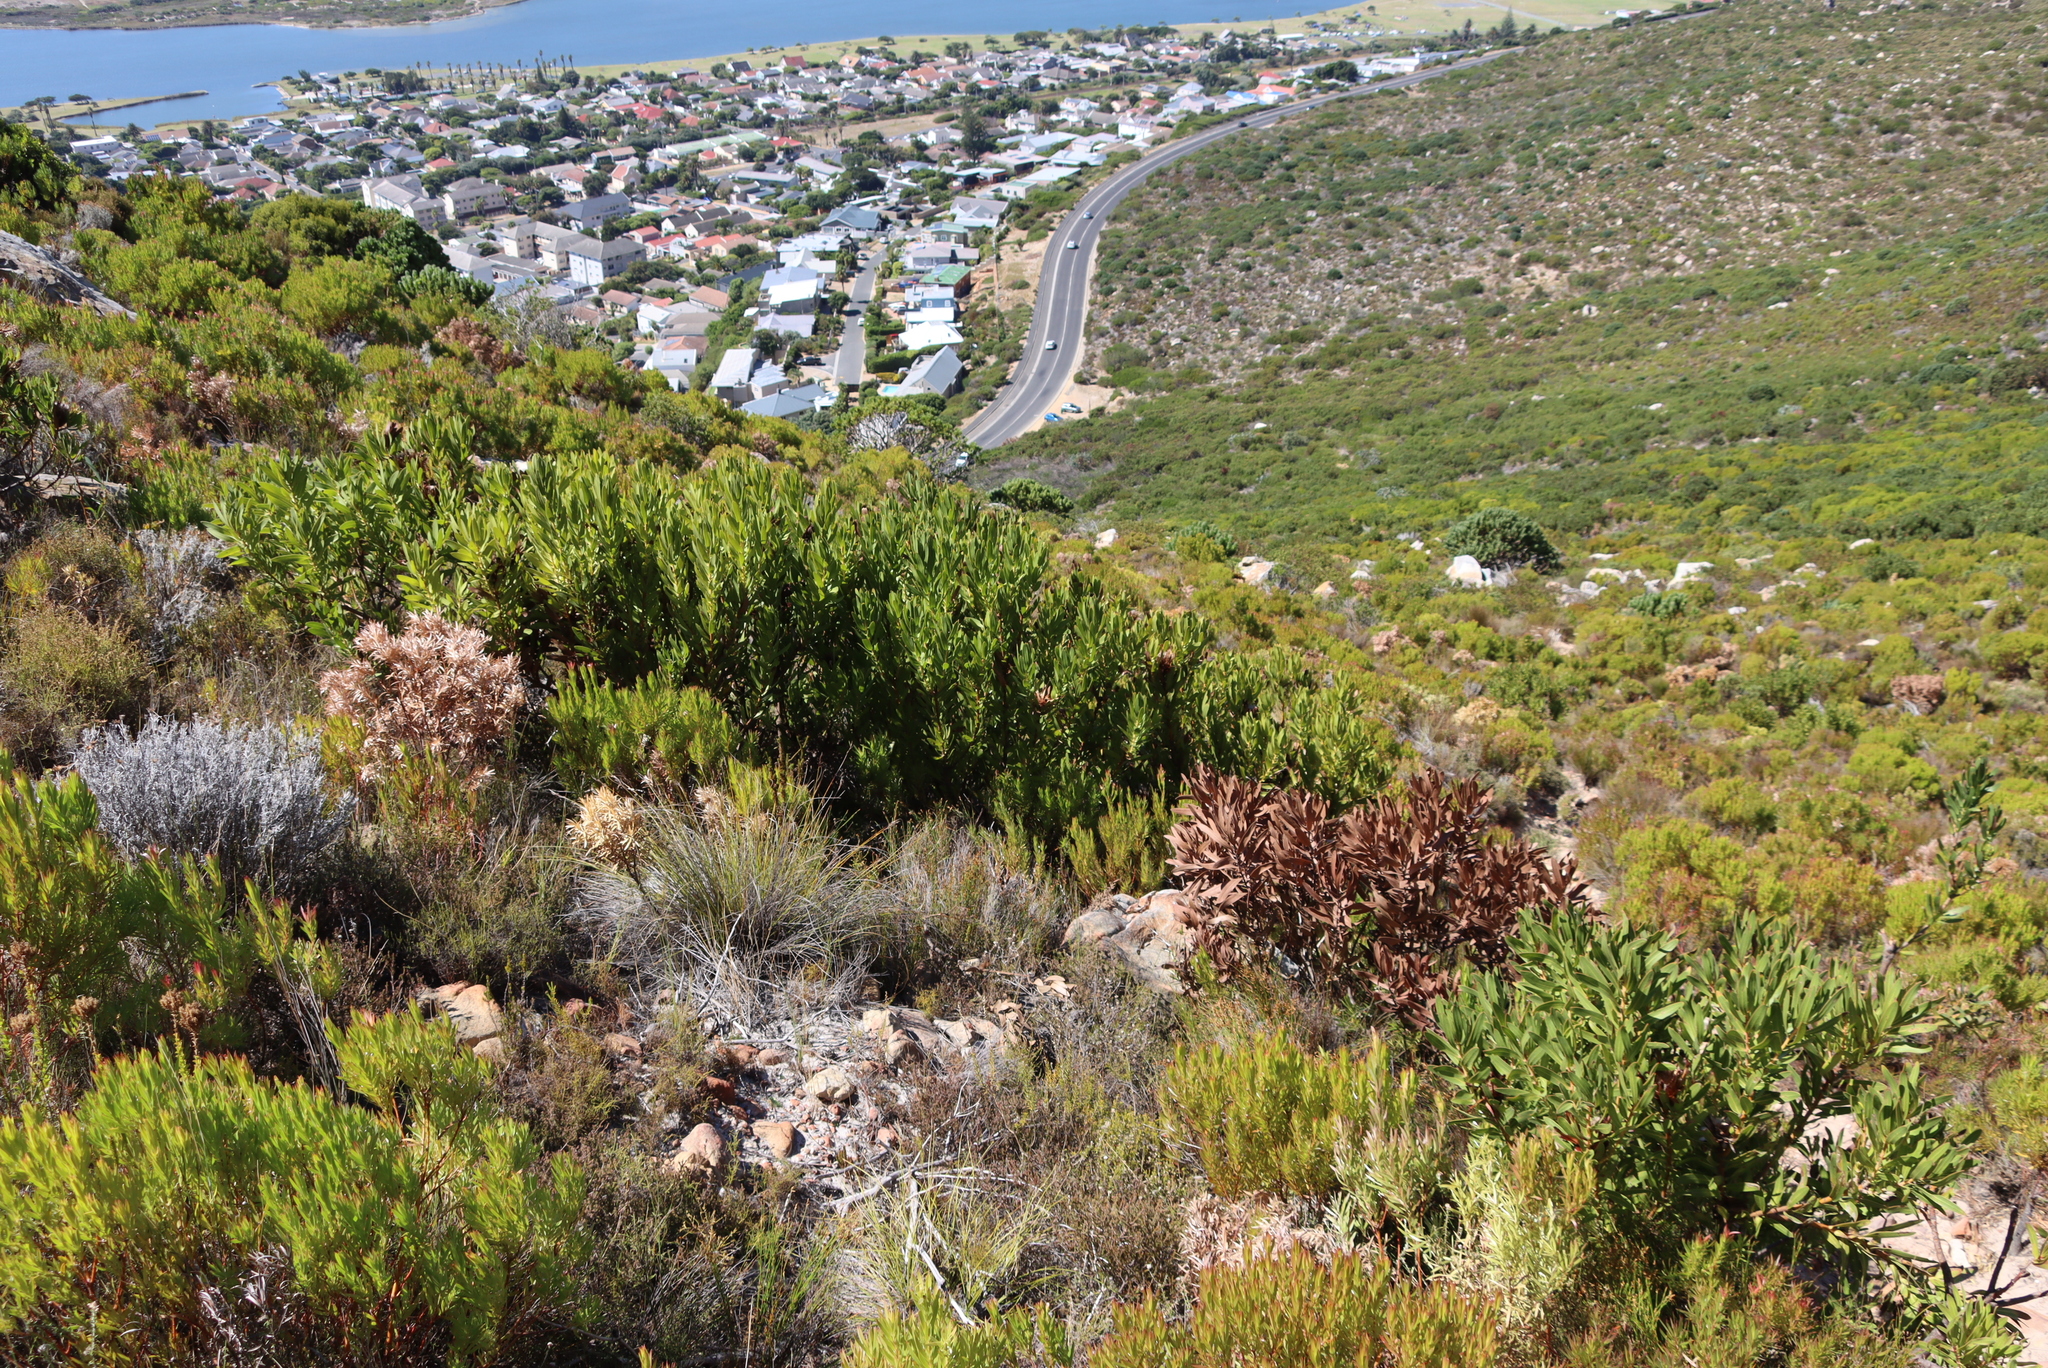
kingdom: Plantae
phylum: Tracheophyta
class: Magnoliopsida
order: Proteales
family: Proteaceae
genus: Protea
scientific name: Protea lepidocarpodendron
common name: Black-bearded protea
